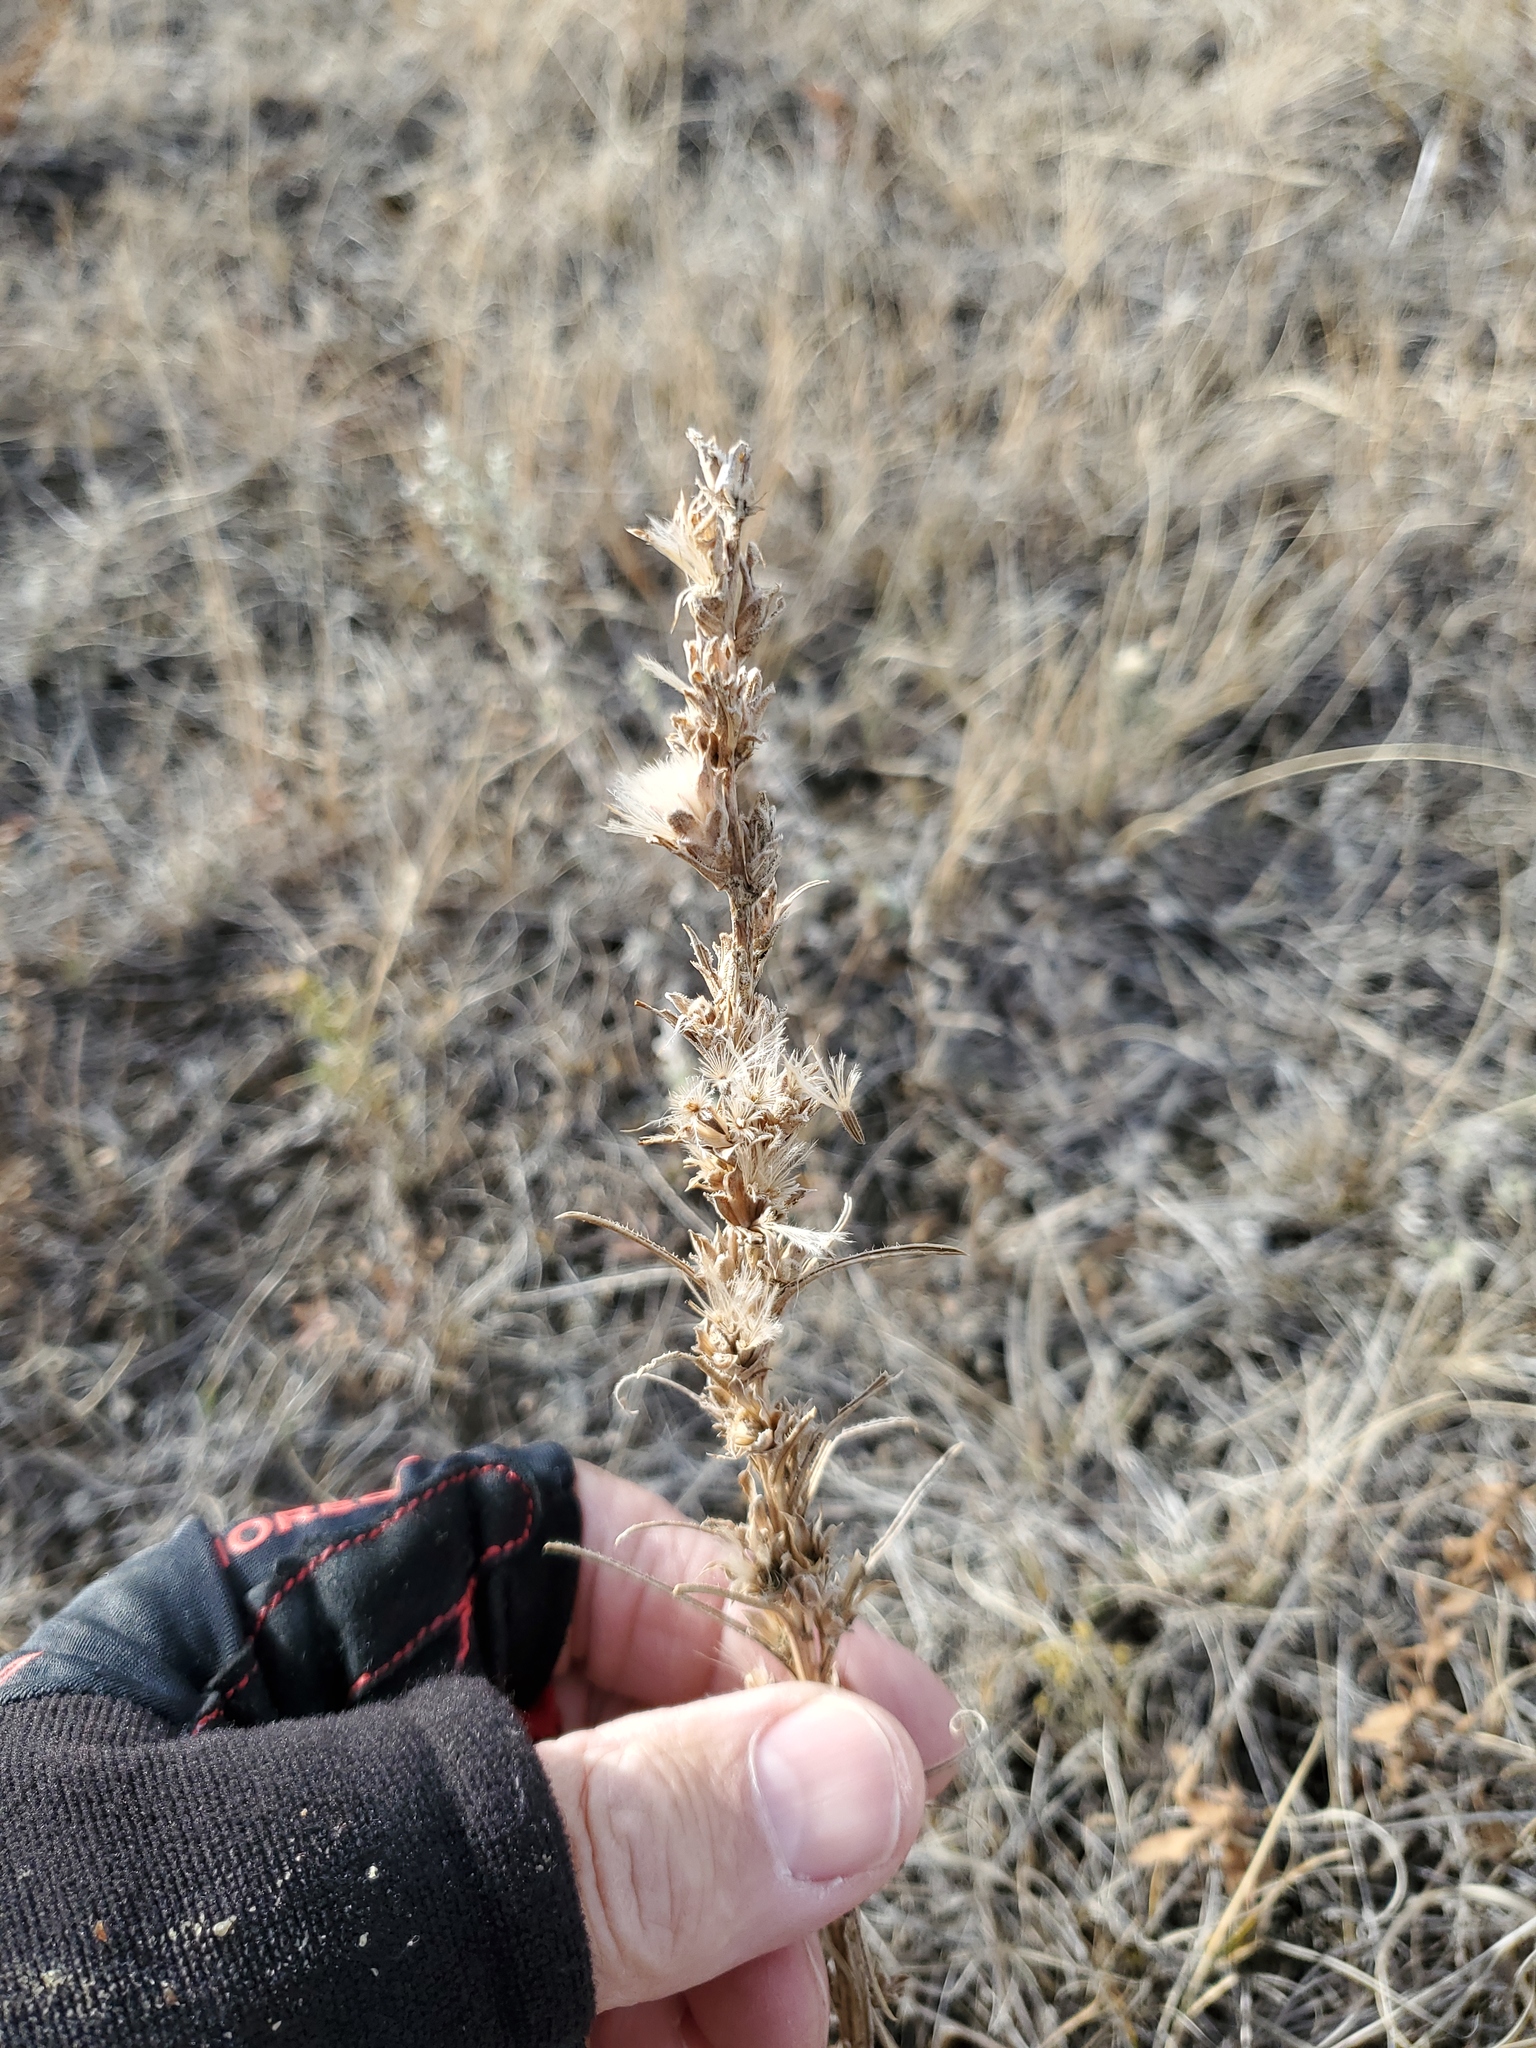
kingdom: Plantae
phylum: Tracheophyta
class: Magnoliopsida
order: Asterales
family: Asteraceae
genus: Liatris
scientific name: Liatris punctata
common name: Dotted gayfeather
